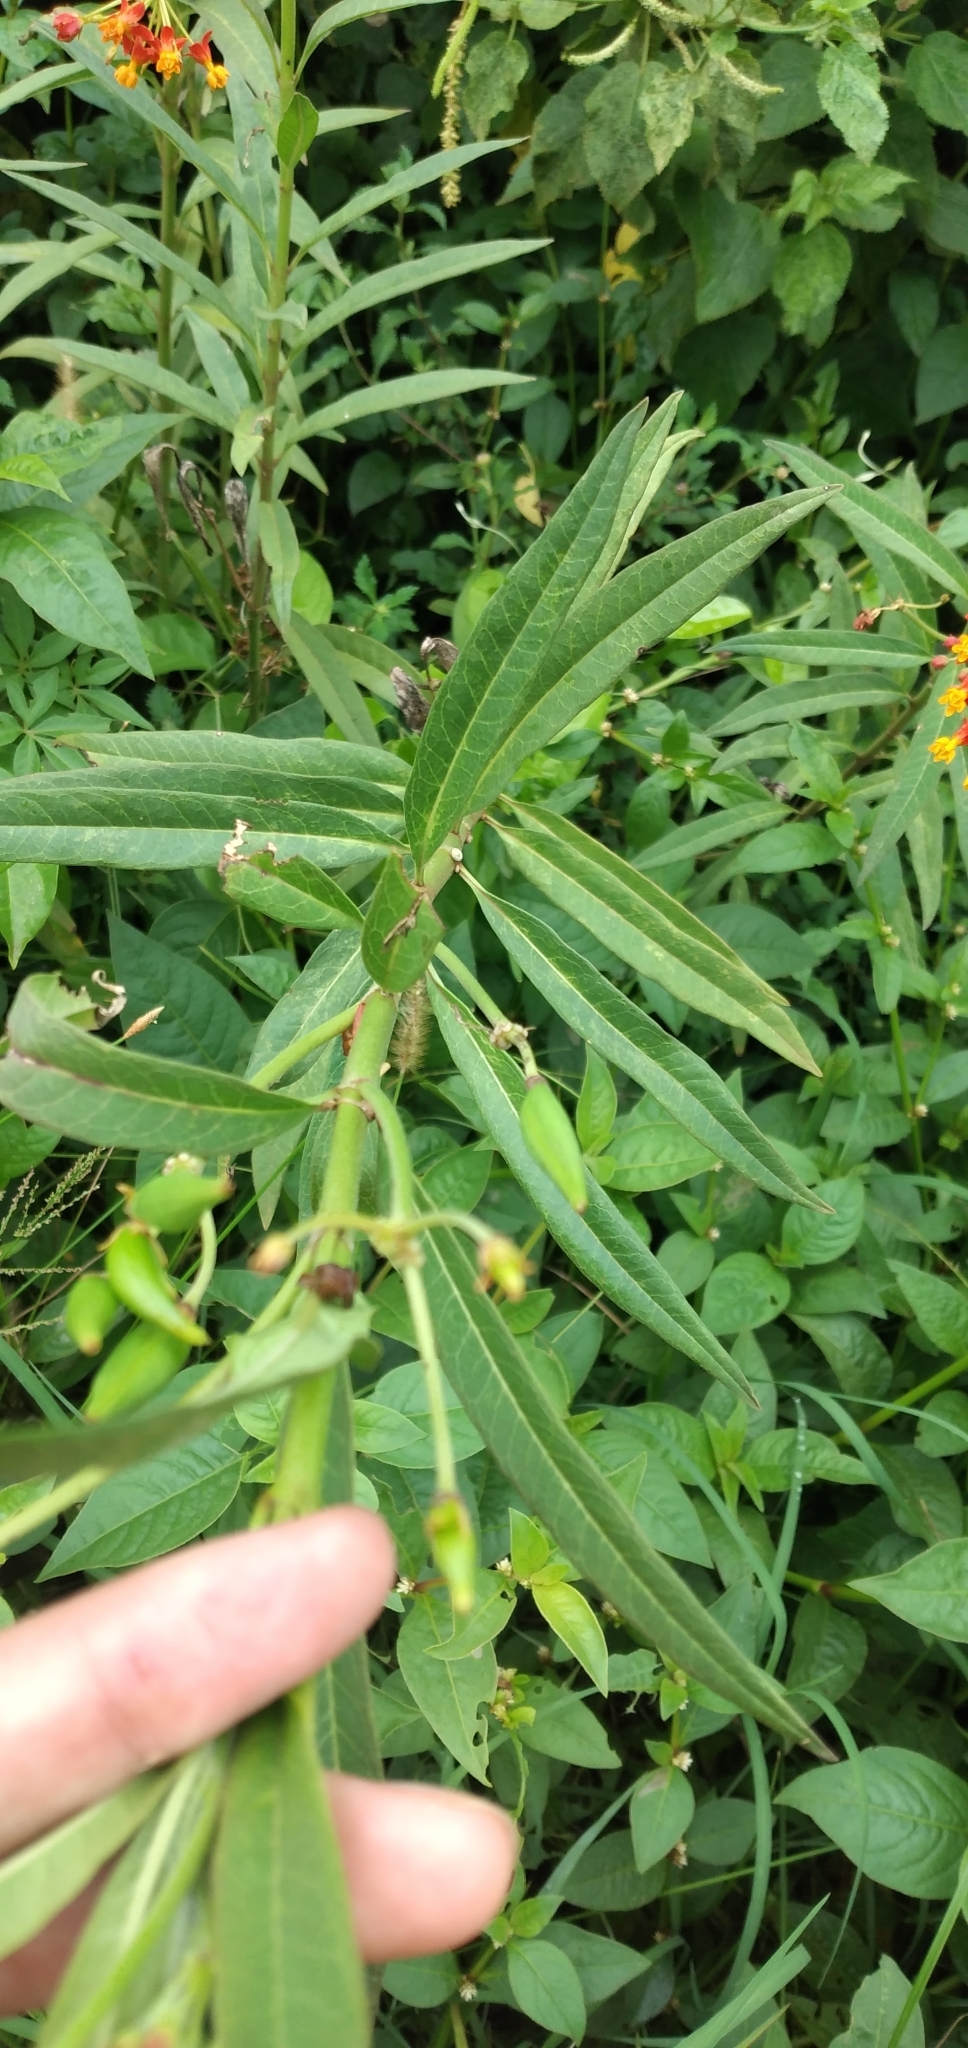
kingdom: Plantae
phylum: Tracheophyta
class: Magnoliopsida
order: Gentianales
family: Apocynaceae
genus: Asclepias
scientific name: Asclepias curassavica
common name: Bloodflower
